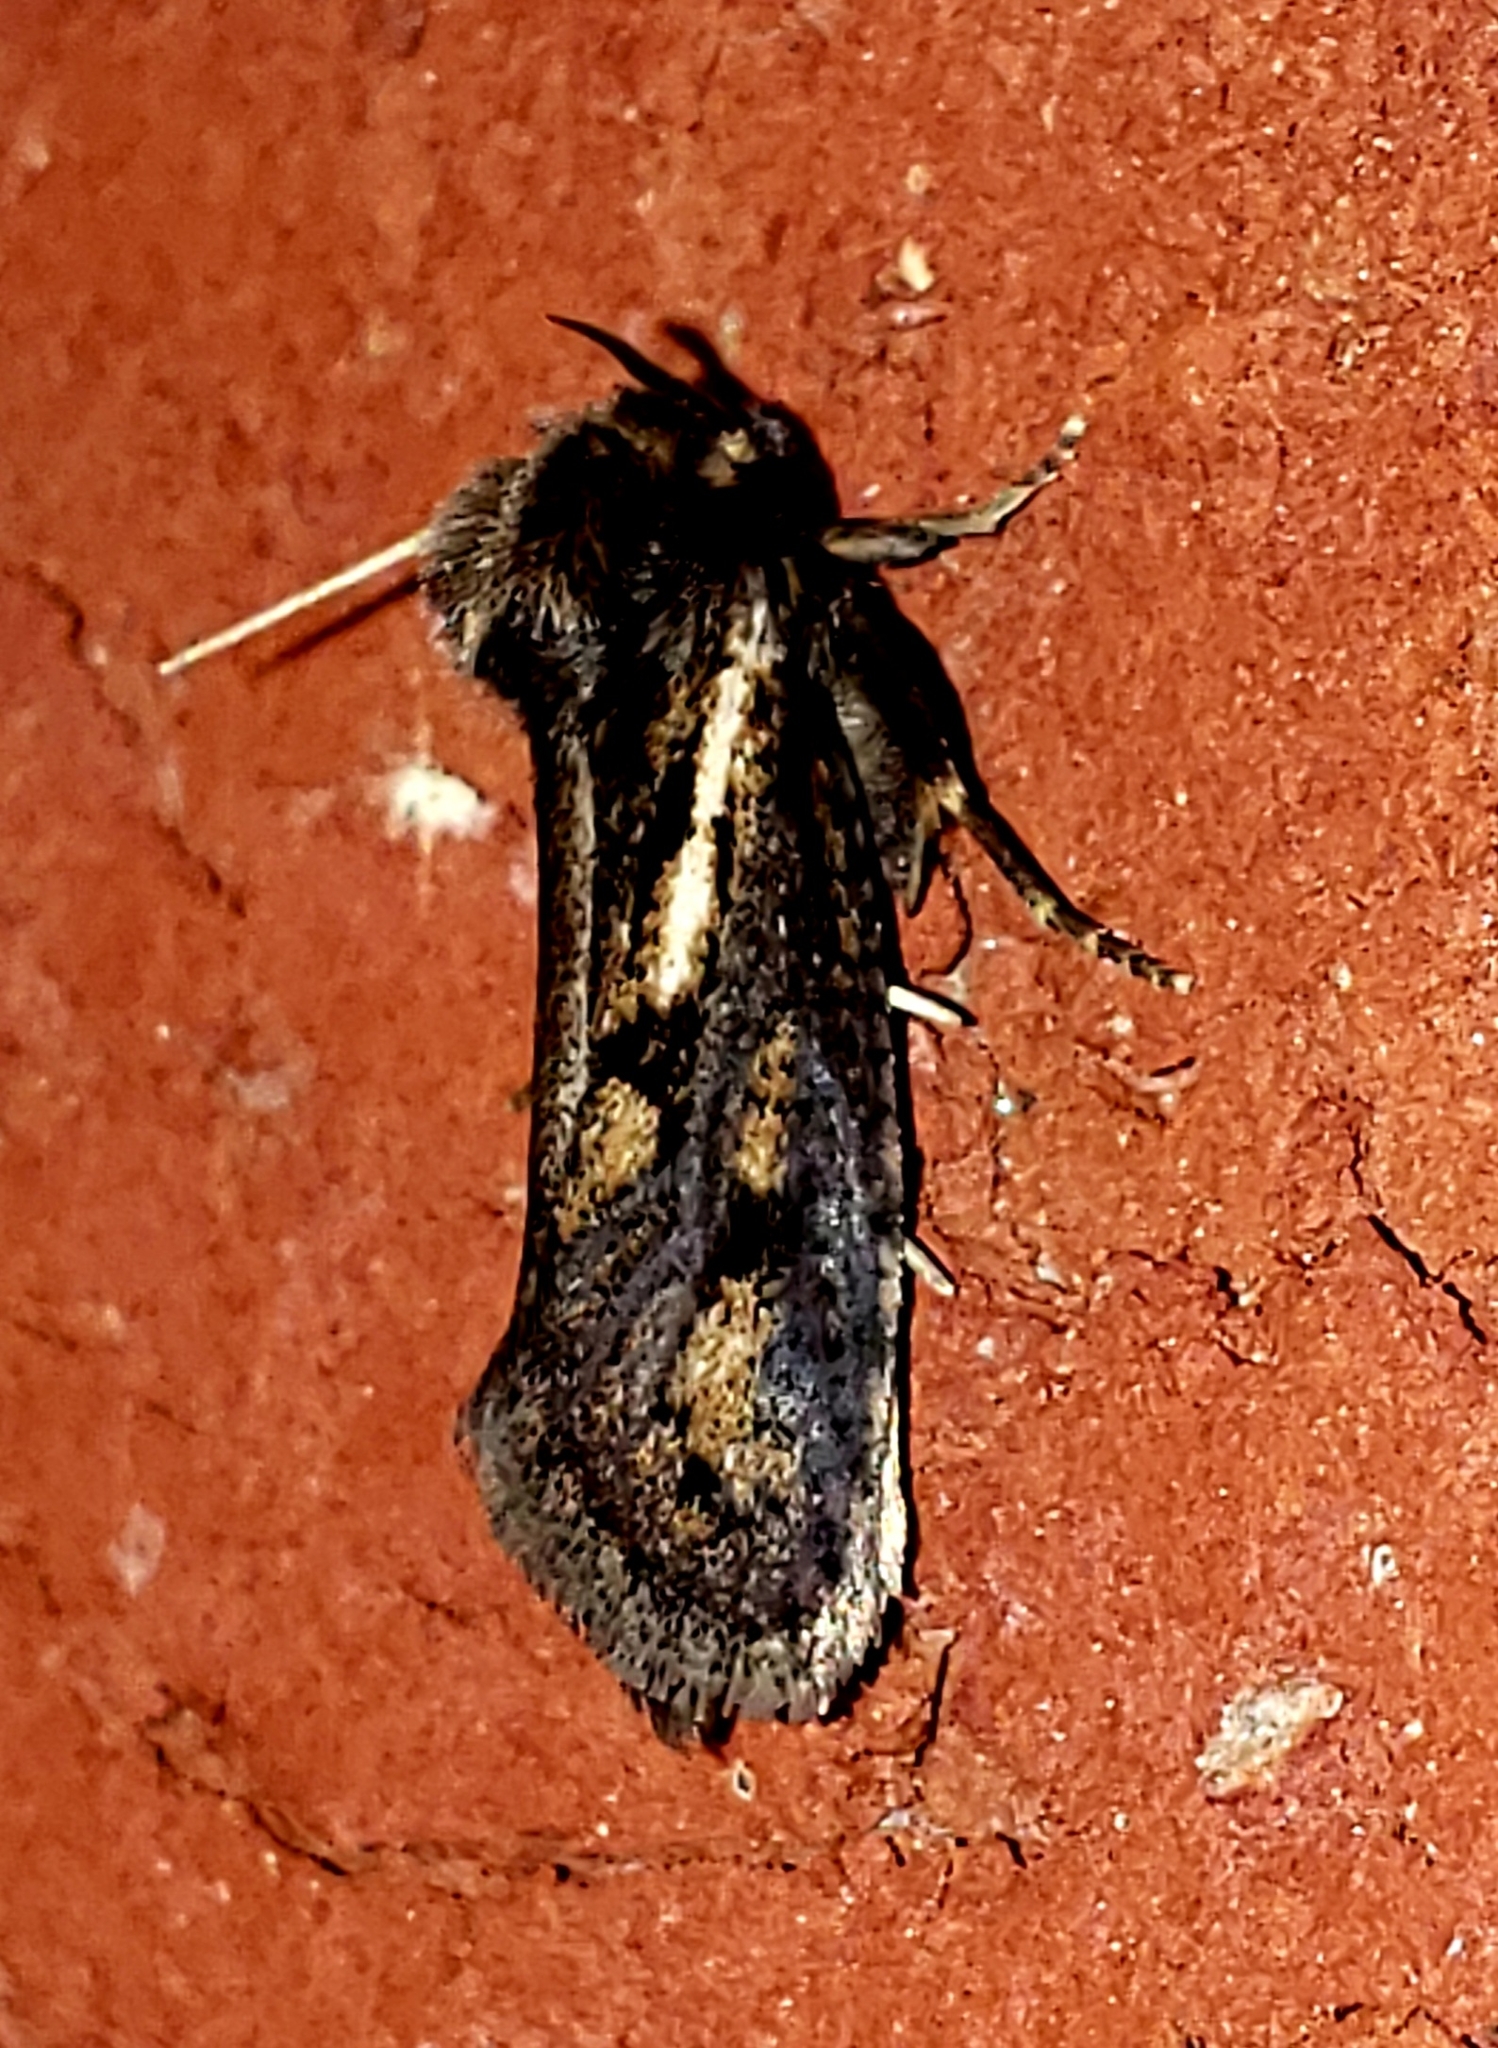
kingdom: Animalia
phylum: Arthropoda
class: Insecta
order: Lepidoptera
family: Tineidae
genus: Acrolophus
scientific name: Acrolophus popeanella
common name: Clemens' grass tubeworm moth
